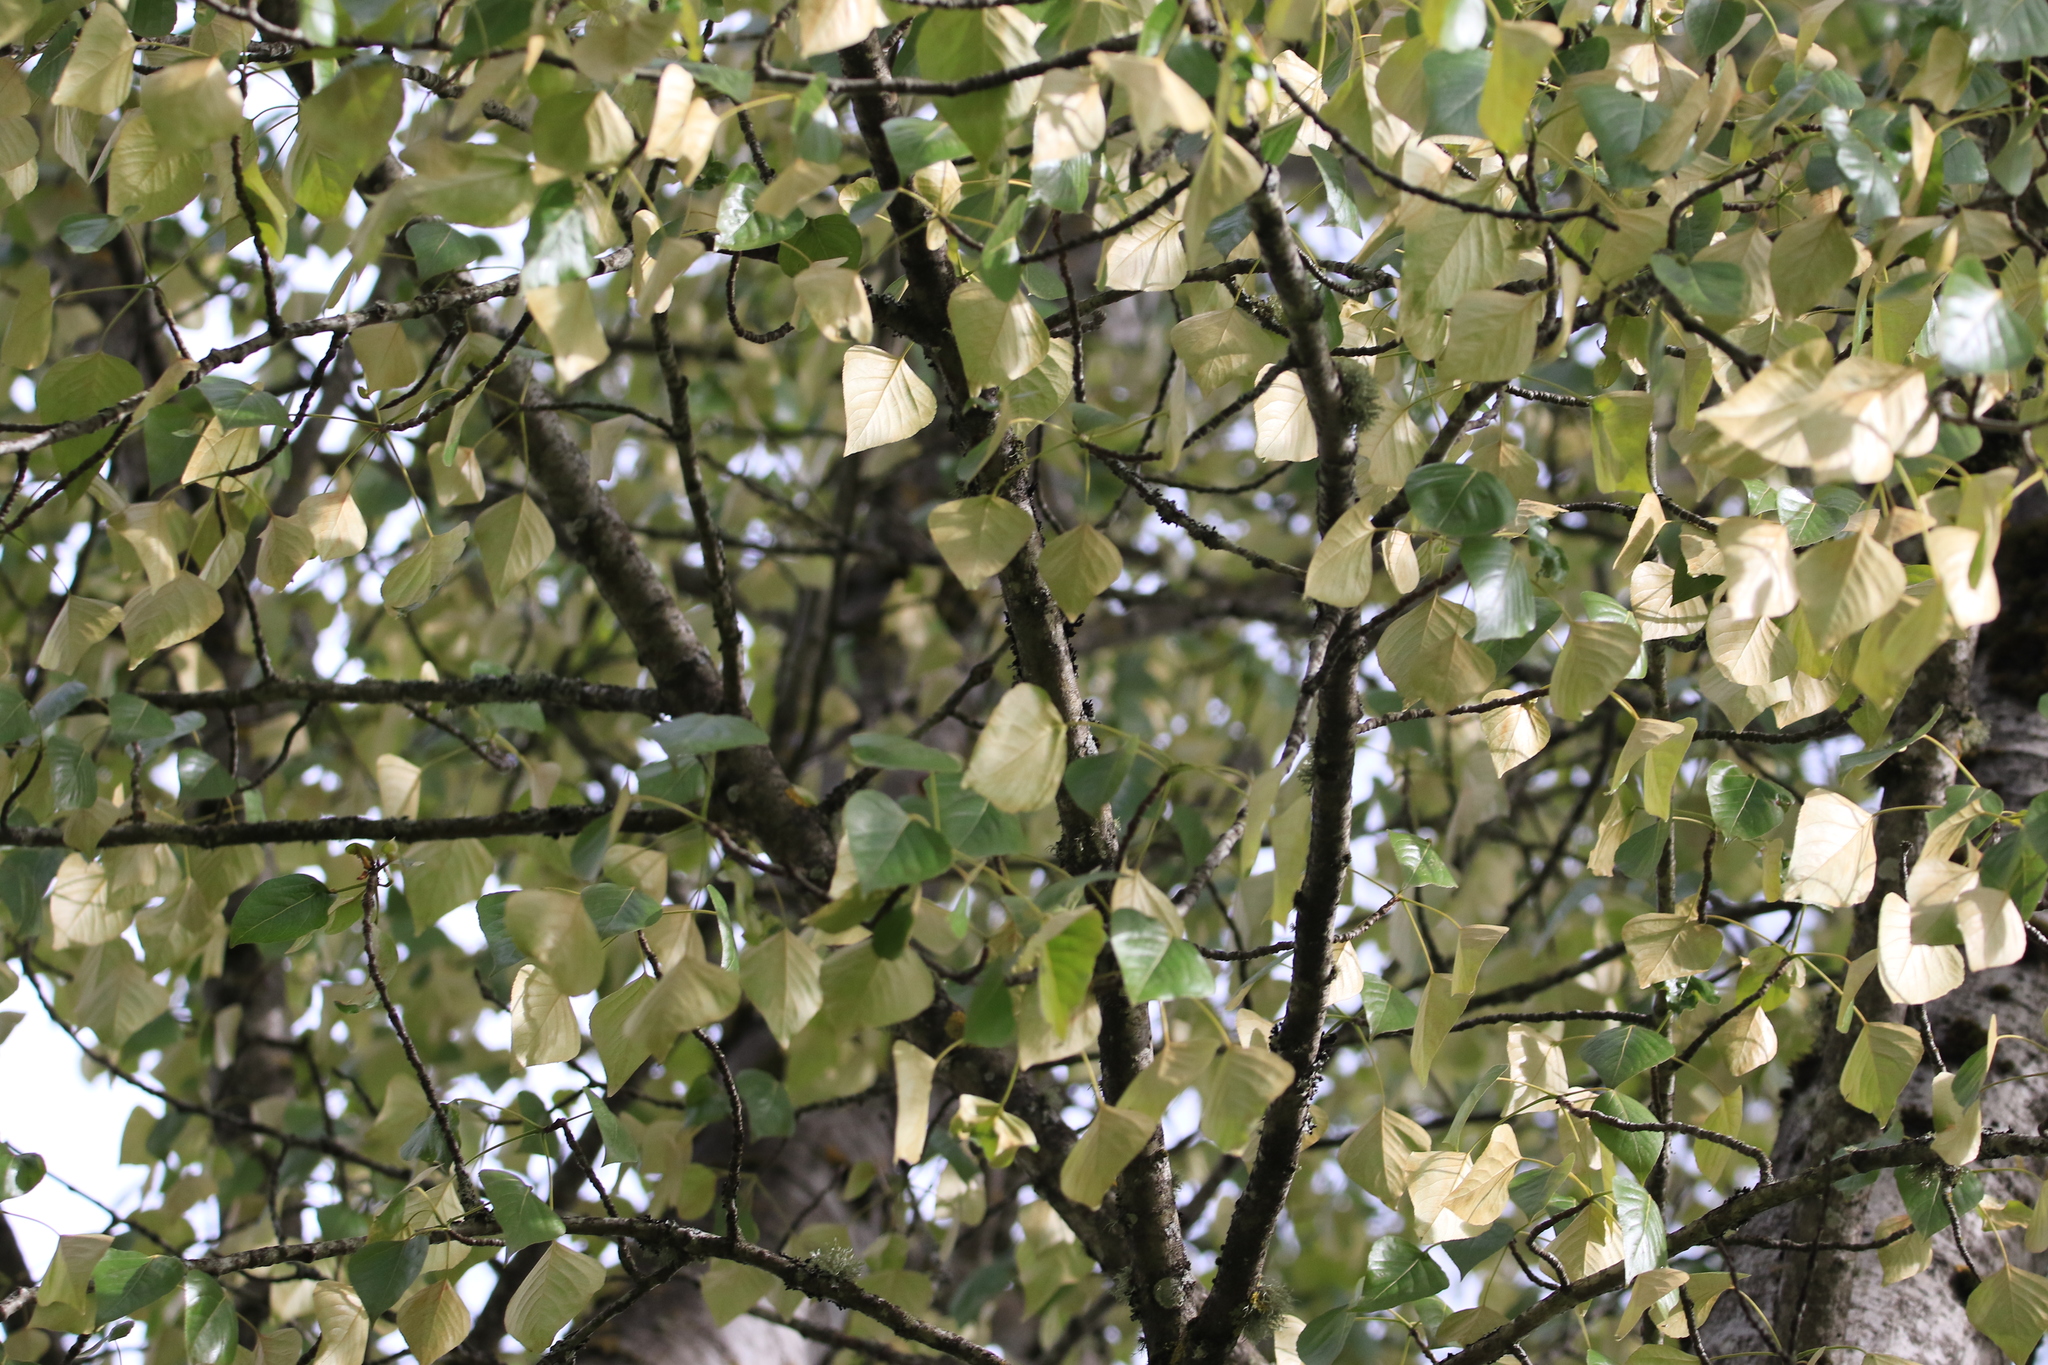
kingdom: Plantae
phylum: Tracheophyta
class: Magnoliopsida
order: Malpighiales
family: Salicaceae
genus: Populus
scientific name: Populus trichocarpa
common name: Black cottonwood
